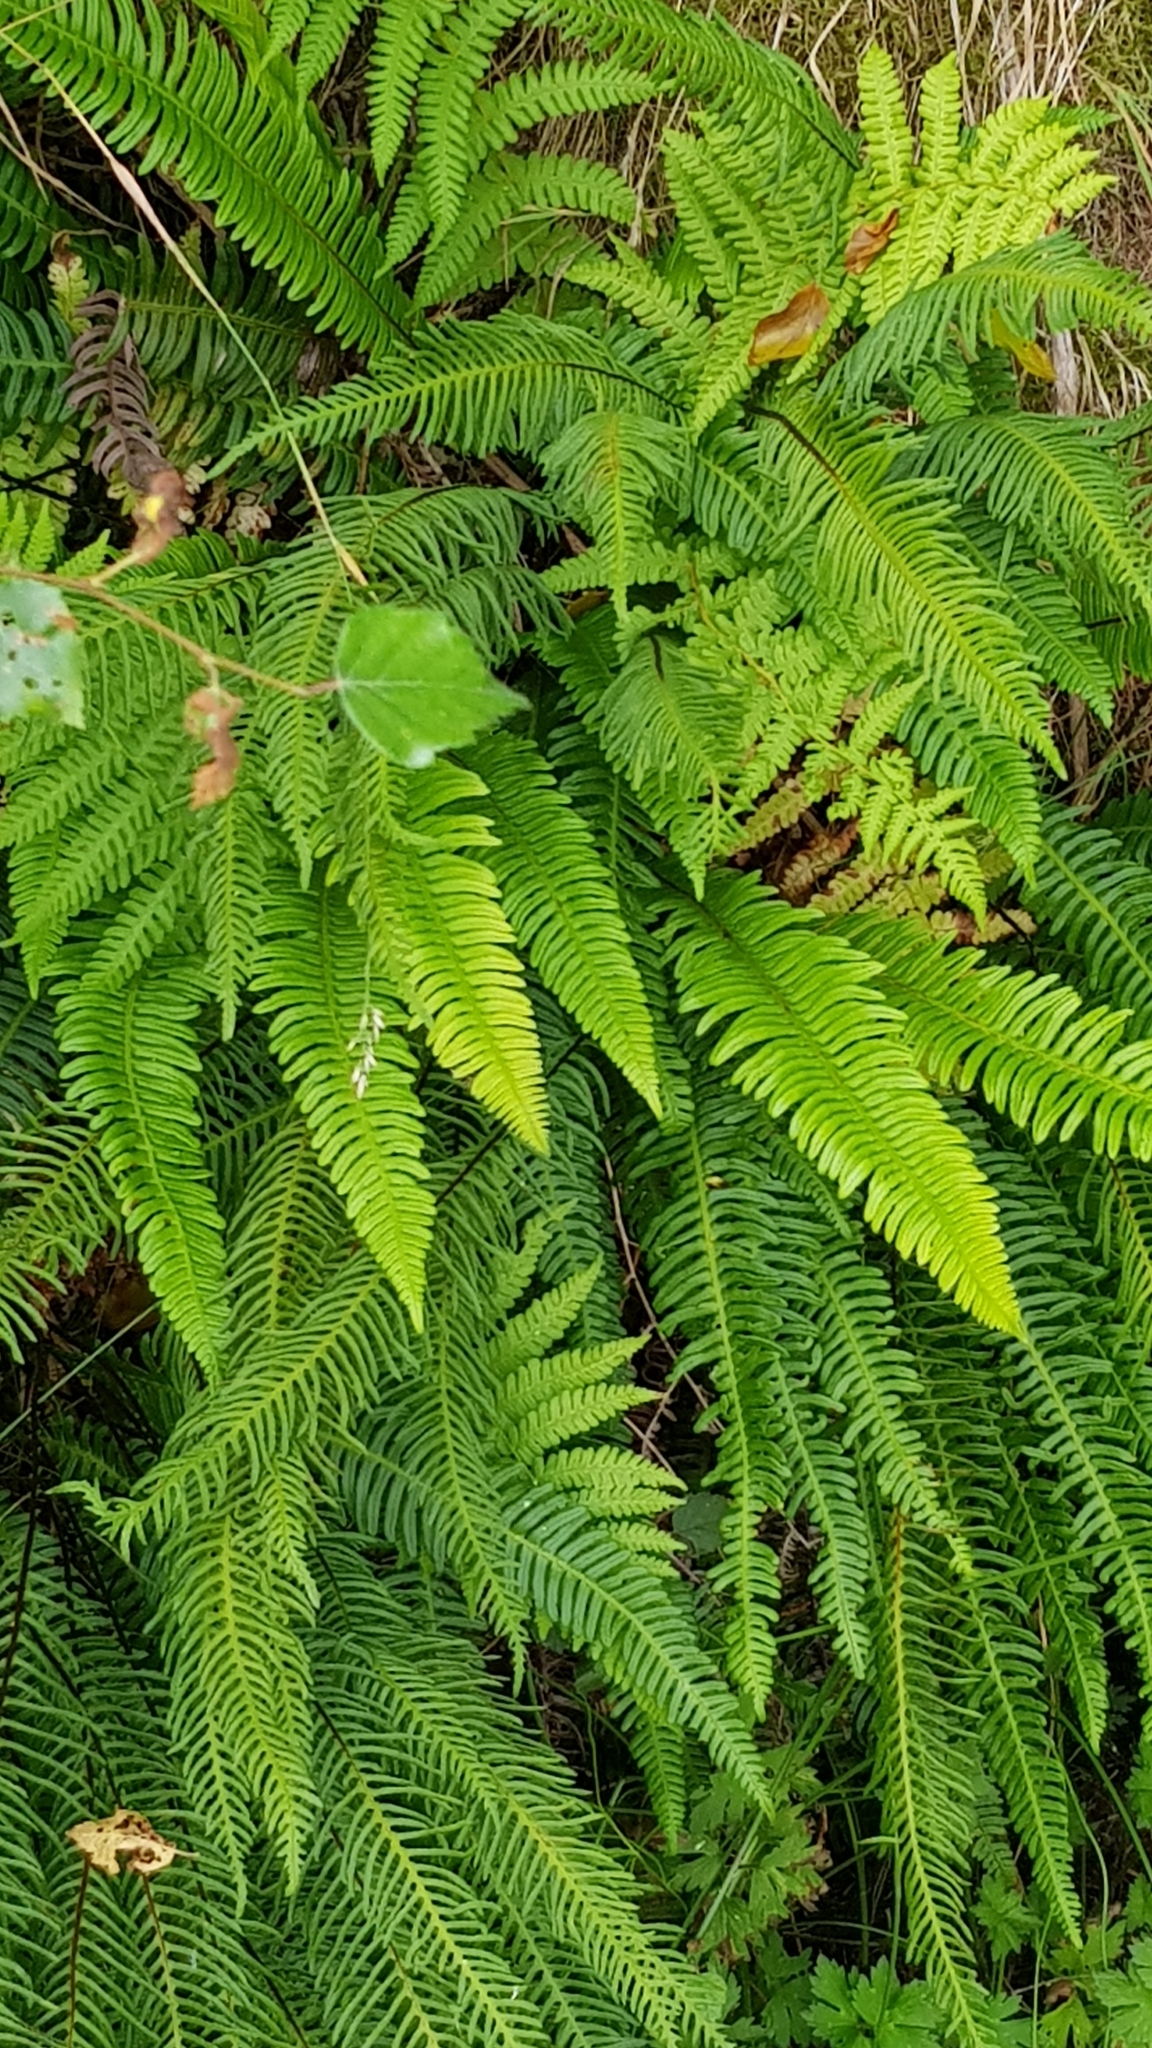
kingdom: Plantae
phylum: Tracheophyta
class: Polypodiopsida
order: Polypodiales
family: Blechnaceae
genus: Struthiopteris
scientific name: Struthiopteris spicant
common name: Deer fern
